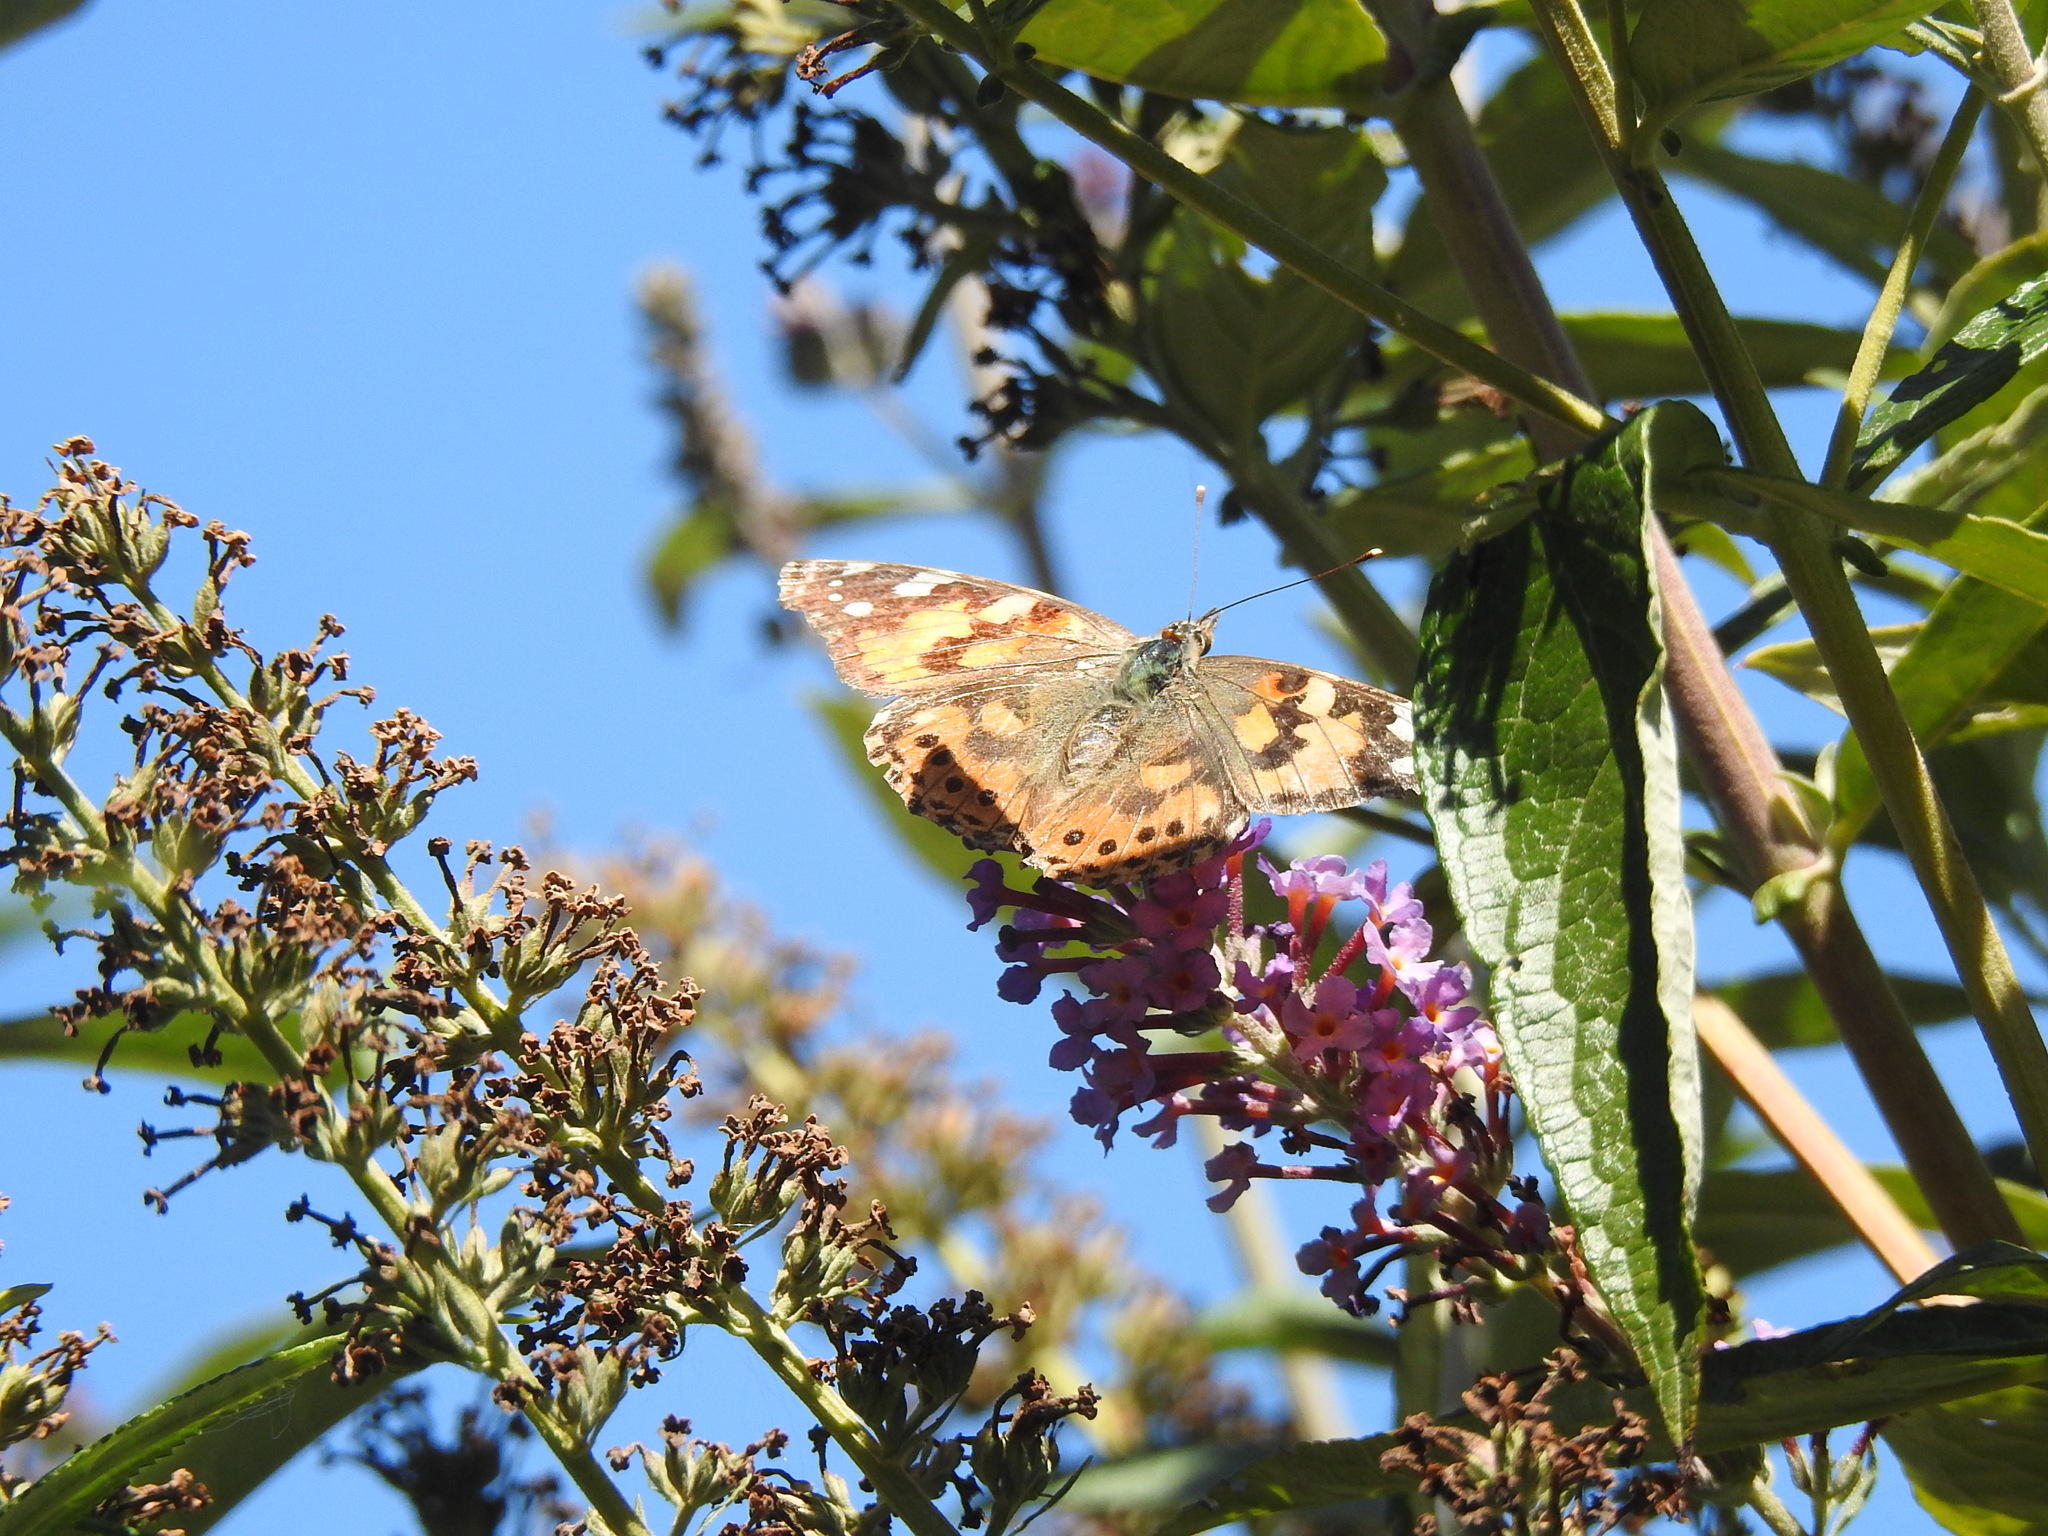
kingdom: Animalia
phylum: Arthropoda
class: Insecta
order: Lepidoptera
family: Nymphalidae
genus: Vanessa
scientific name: Vanessa cardui
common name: Painted lady
